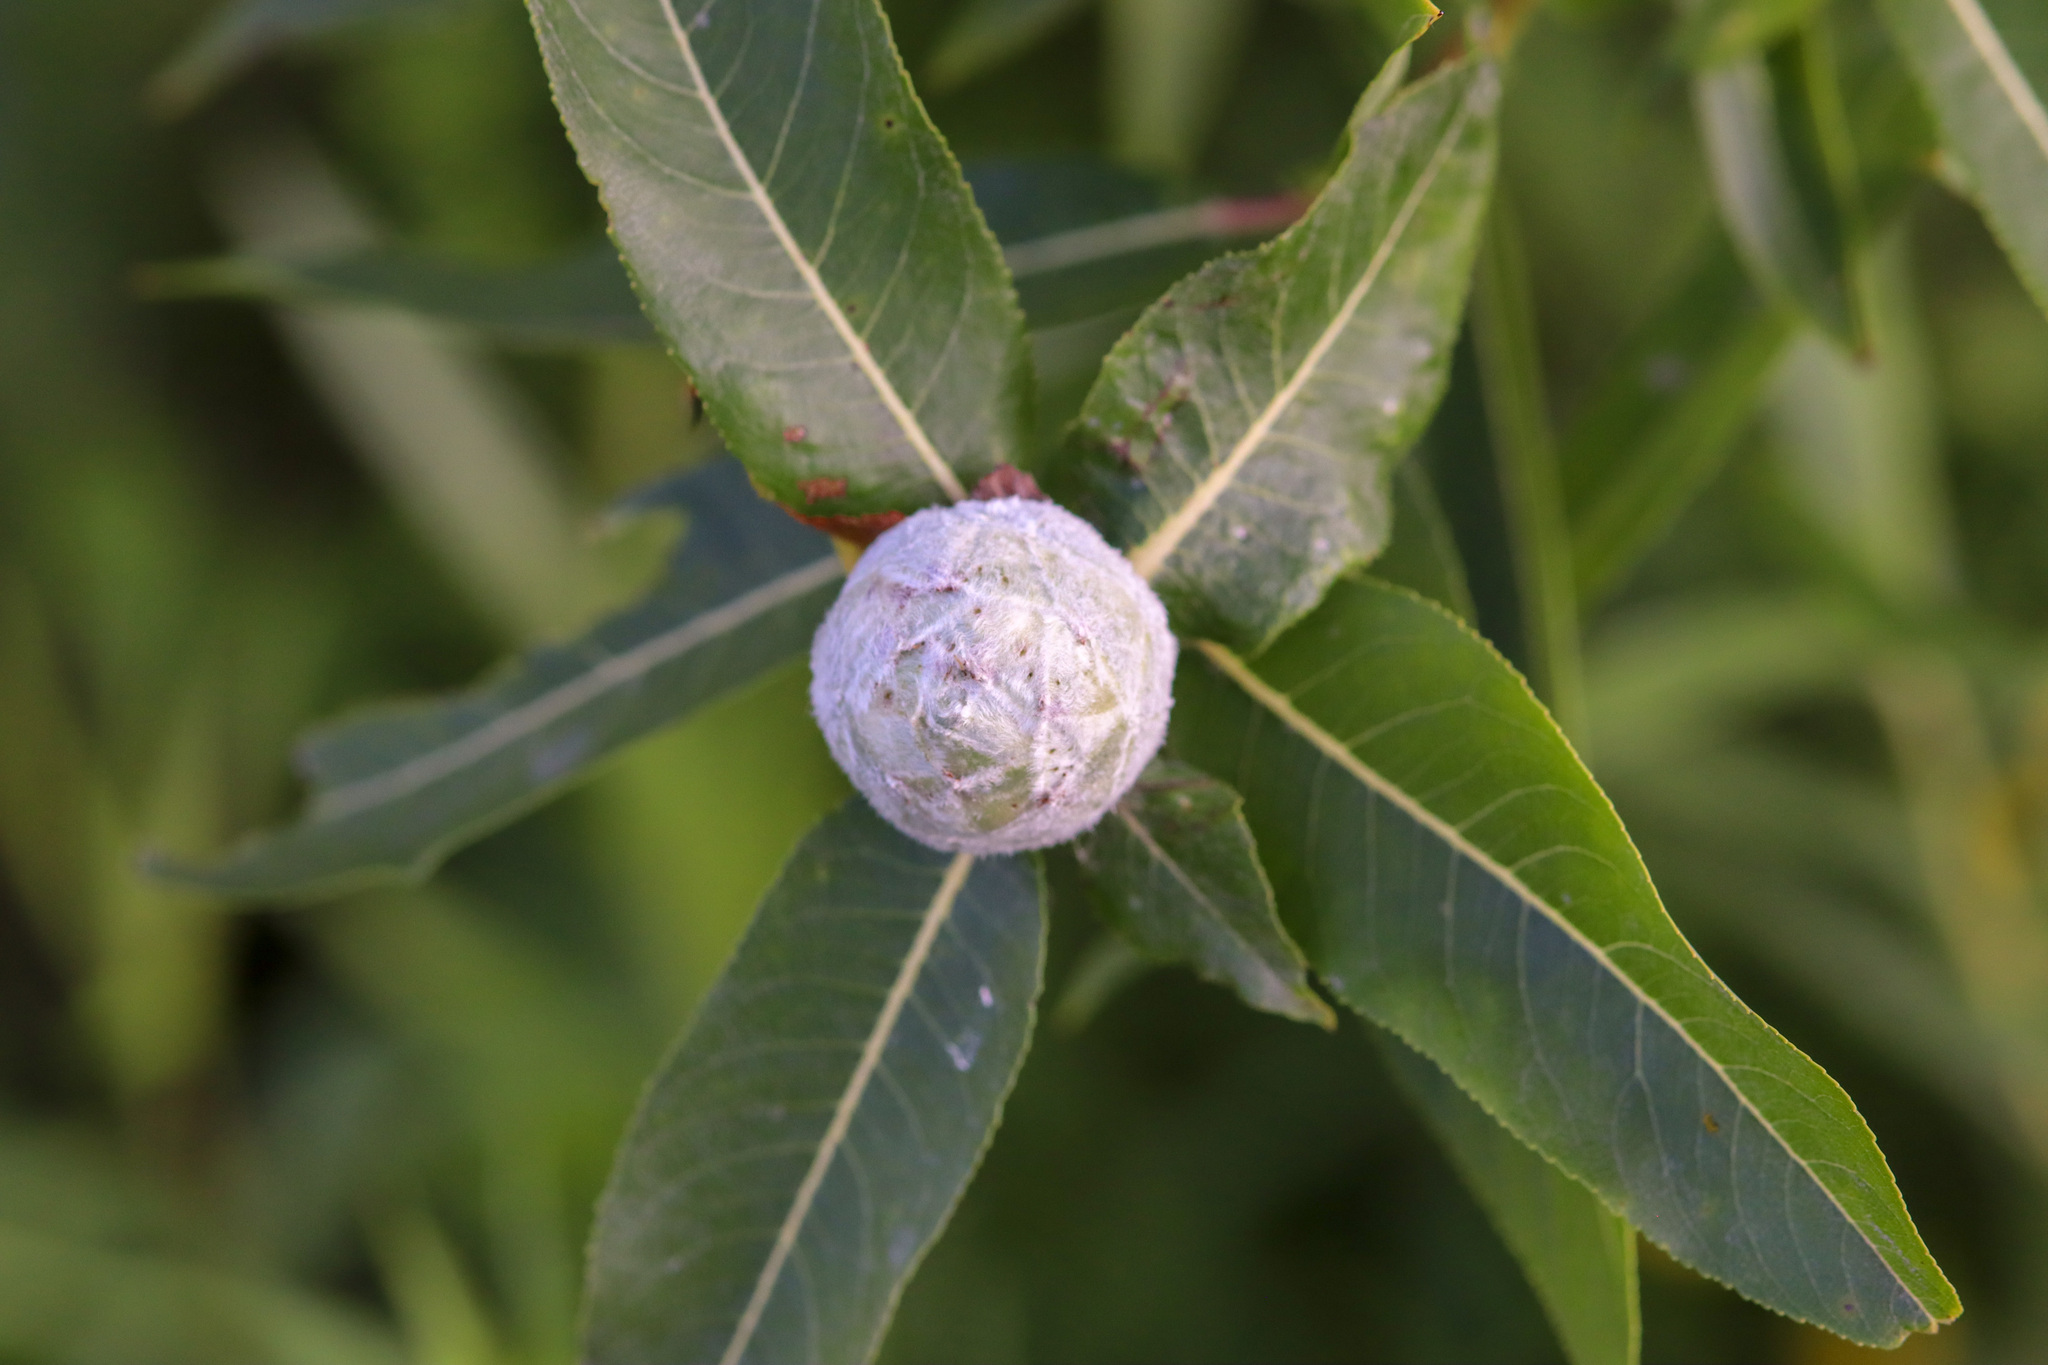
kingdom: Animalia
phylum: Arthropoda
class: Insecta
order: Diptera
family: Cecidomyiidae
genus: Rabdophaga
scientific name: Rabdophaga strobiloides
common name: Willow pinecone gall midge
